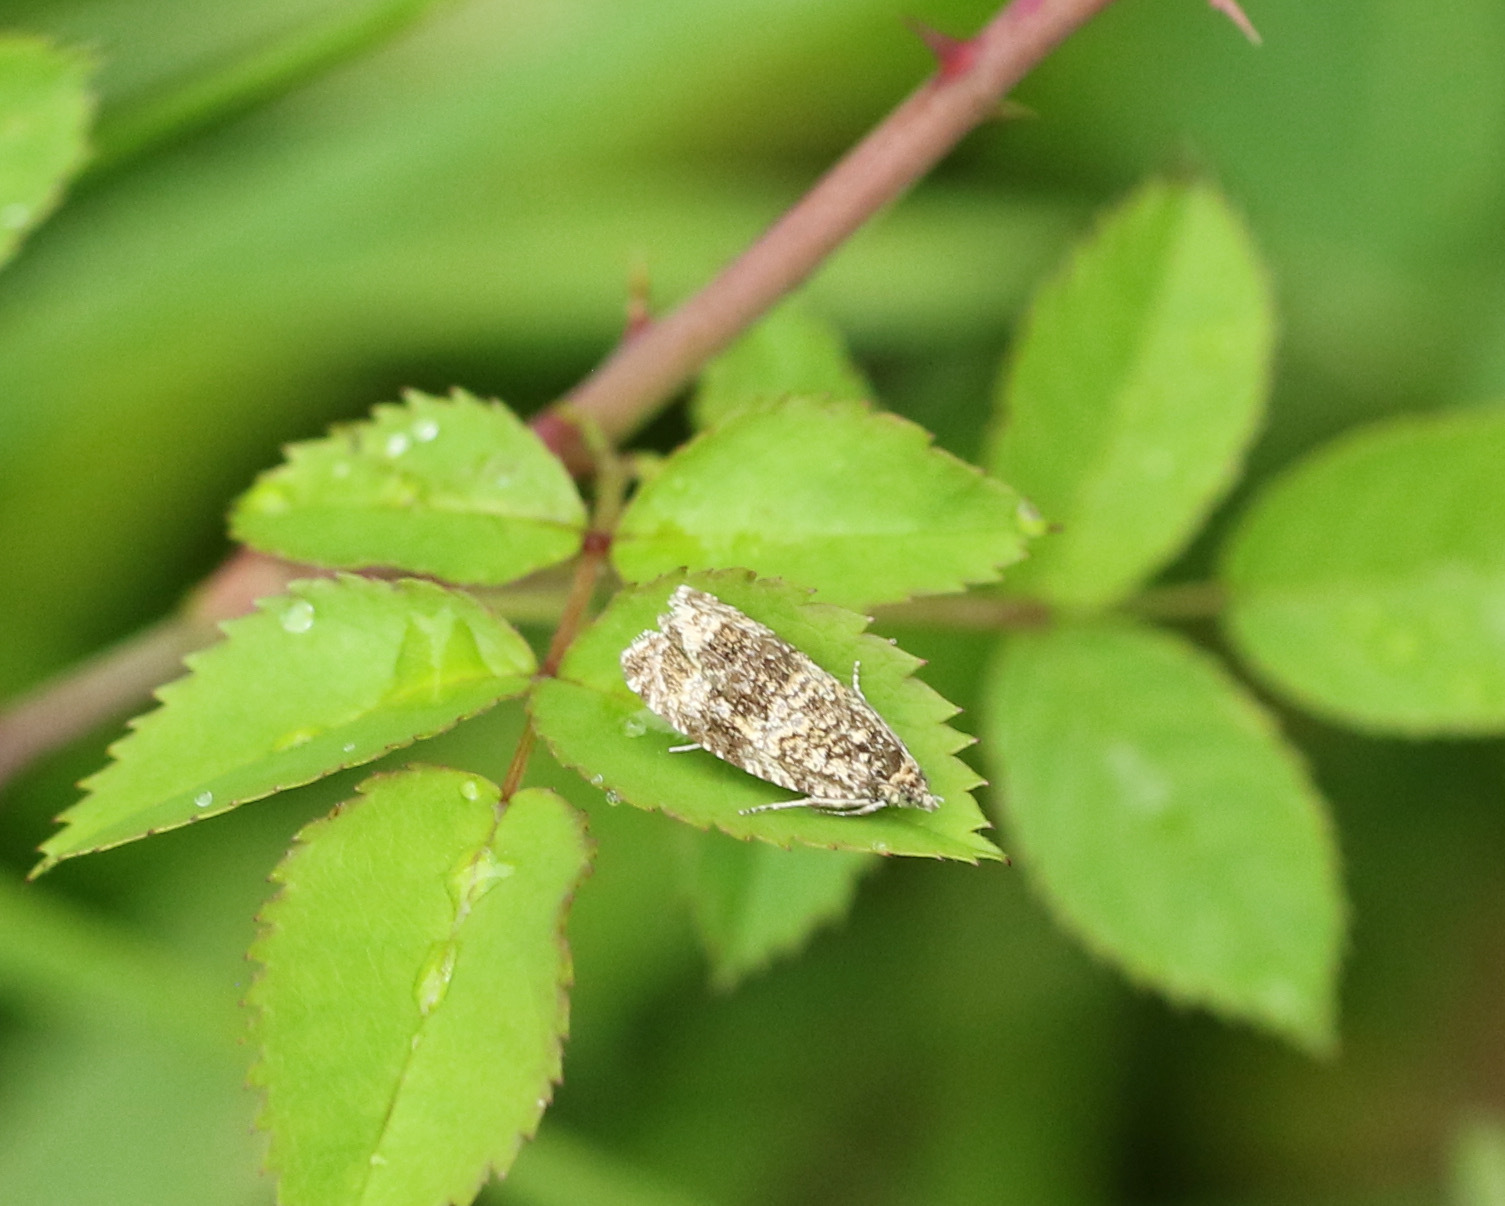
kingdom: Animalia
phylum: Arthropoda
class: Insecta
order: Lepidoptera
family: Tortricidae
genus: Syricoris
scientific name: Syricoris lacunana
